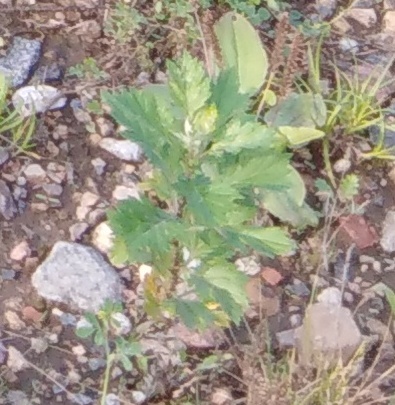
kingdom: Plantae
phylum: Tracheophyta
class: Magnoliopsida
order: Asterales
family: Asteraceae
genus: Artemisia
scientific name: Artemisia vulgaris
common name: Mugwort
